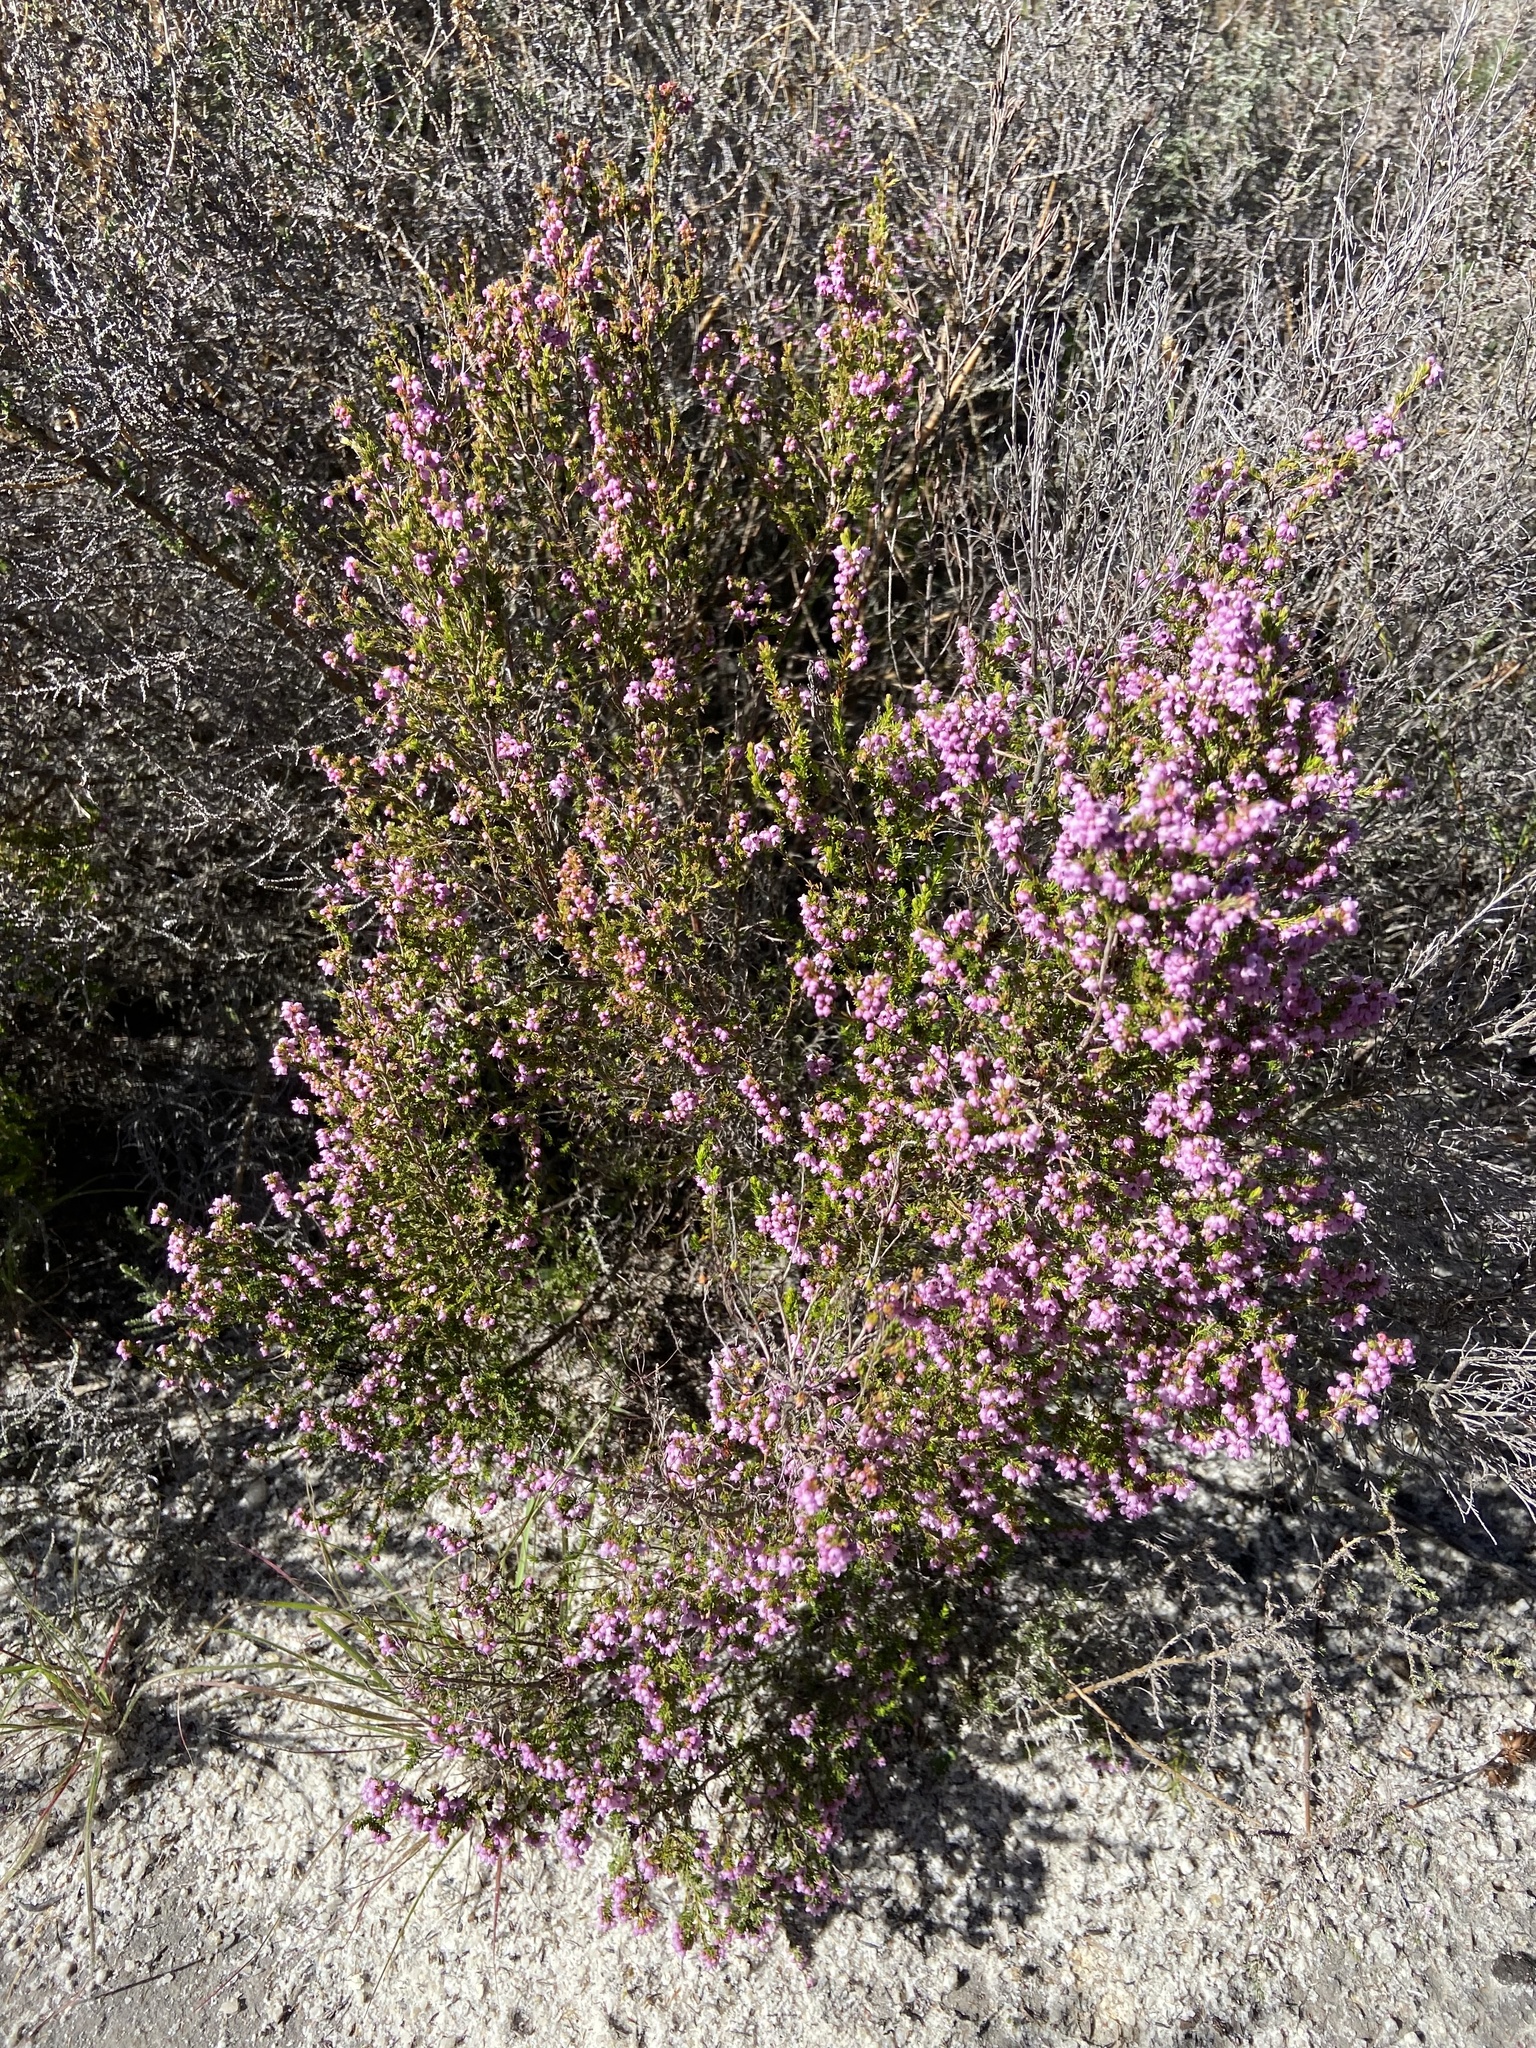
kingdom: Plantae
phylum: Tracheophyta
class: Magnoliopsida
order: Ericales
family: Ericaceae
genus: Erica
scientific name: Erica mauritanica
